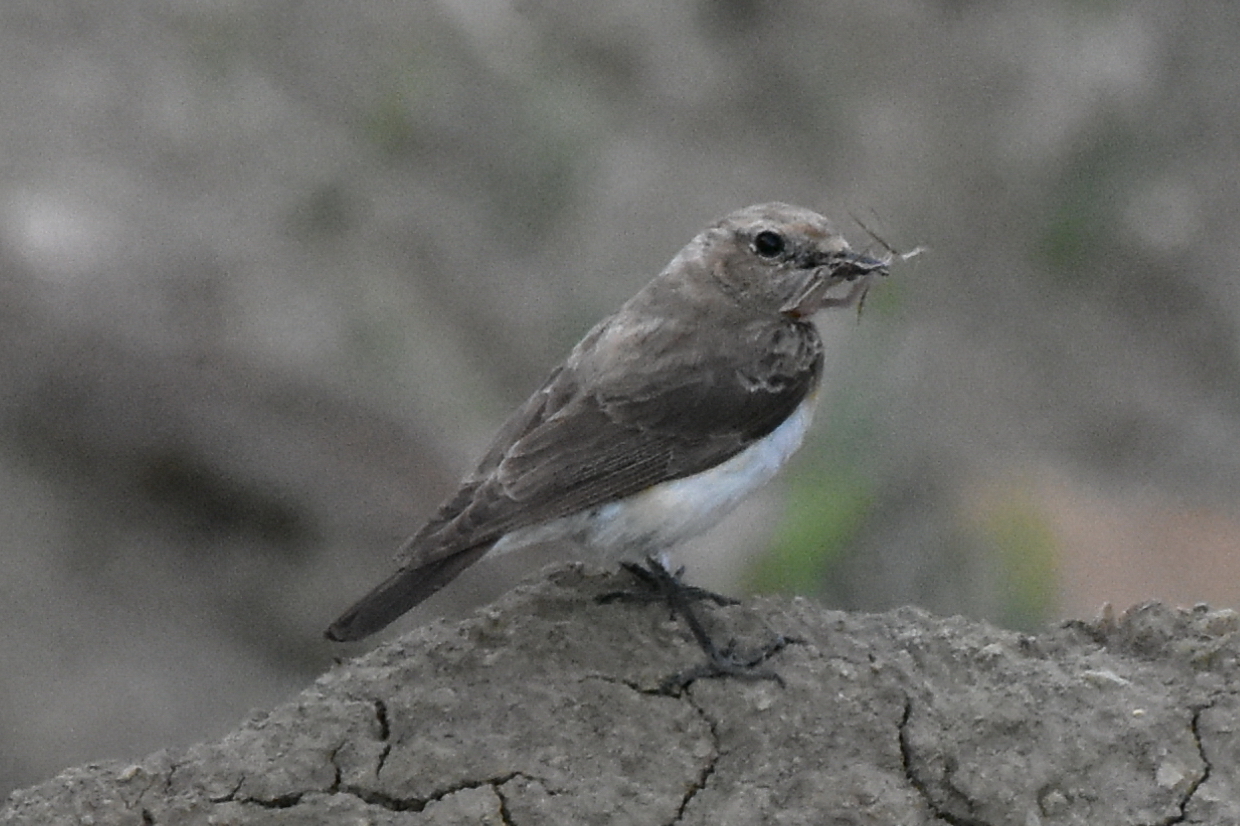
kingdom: Animalia
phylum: Chordata
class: Aves
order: Passeriformes
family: Muscicapidae
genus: Oenanthe
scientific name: Oenanthe pleschanka
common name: Pied wheatear
